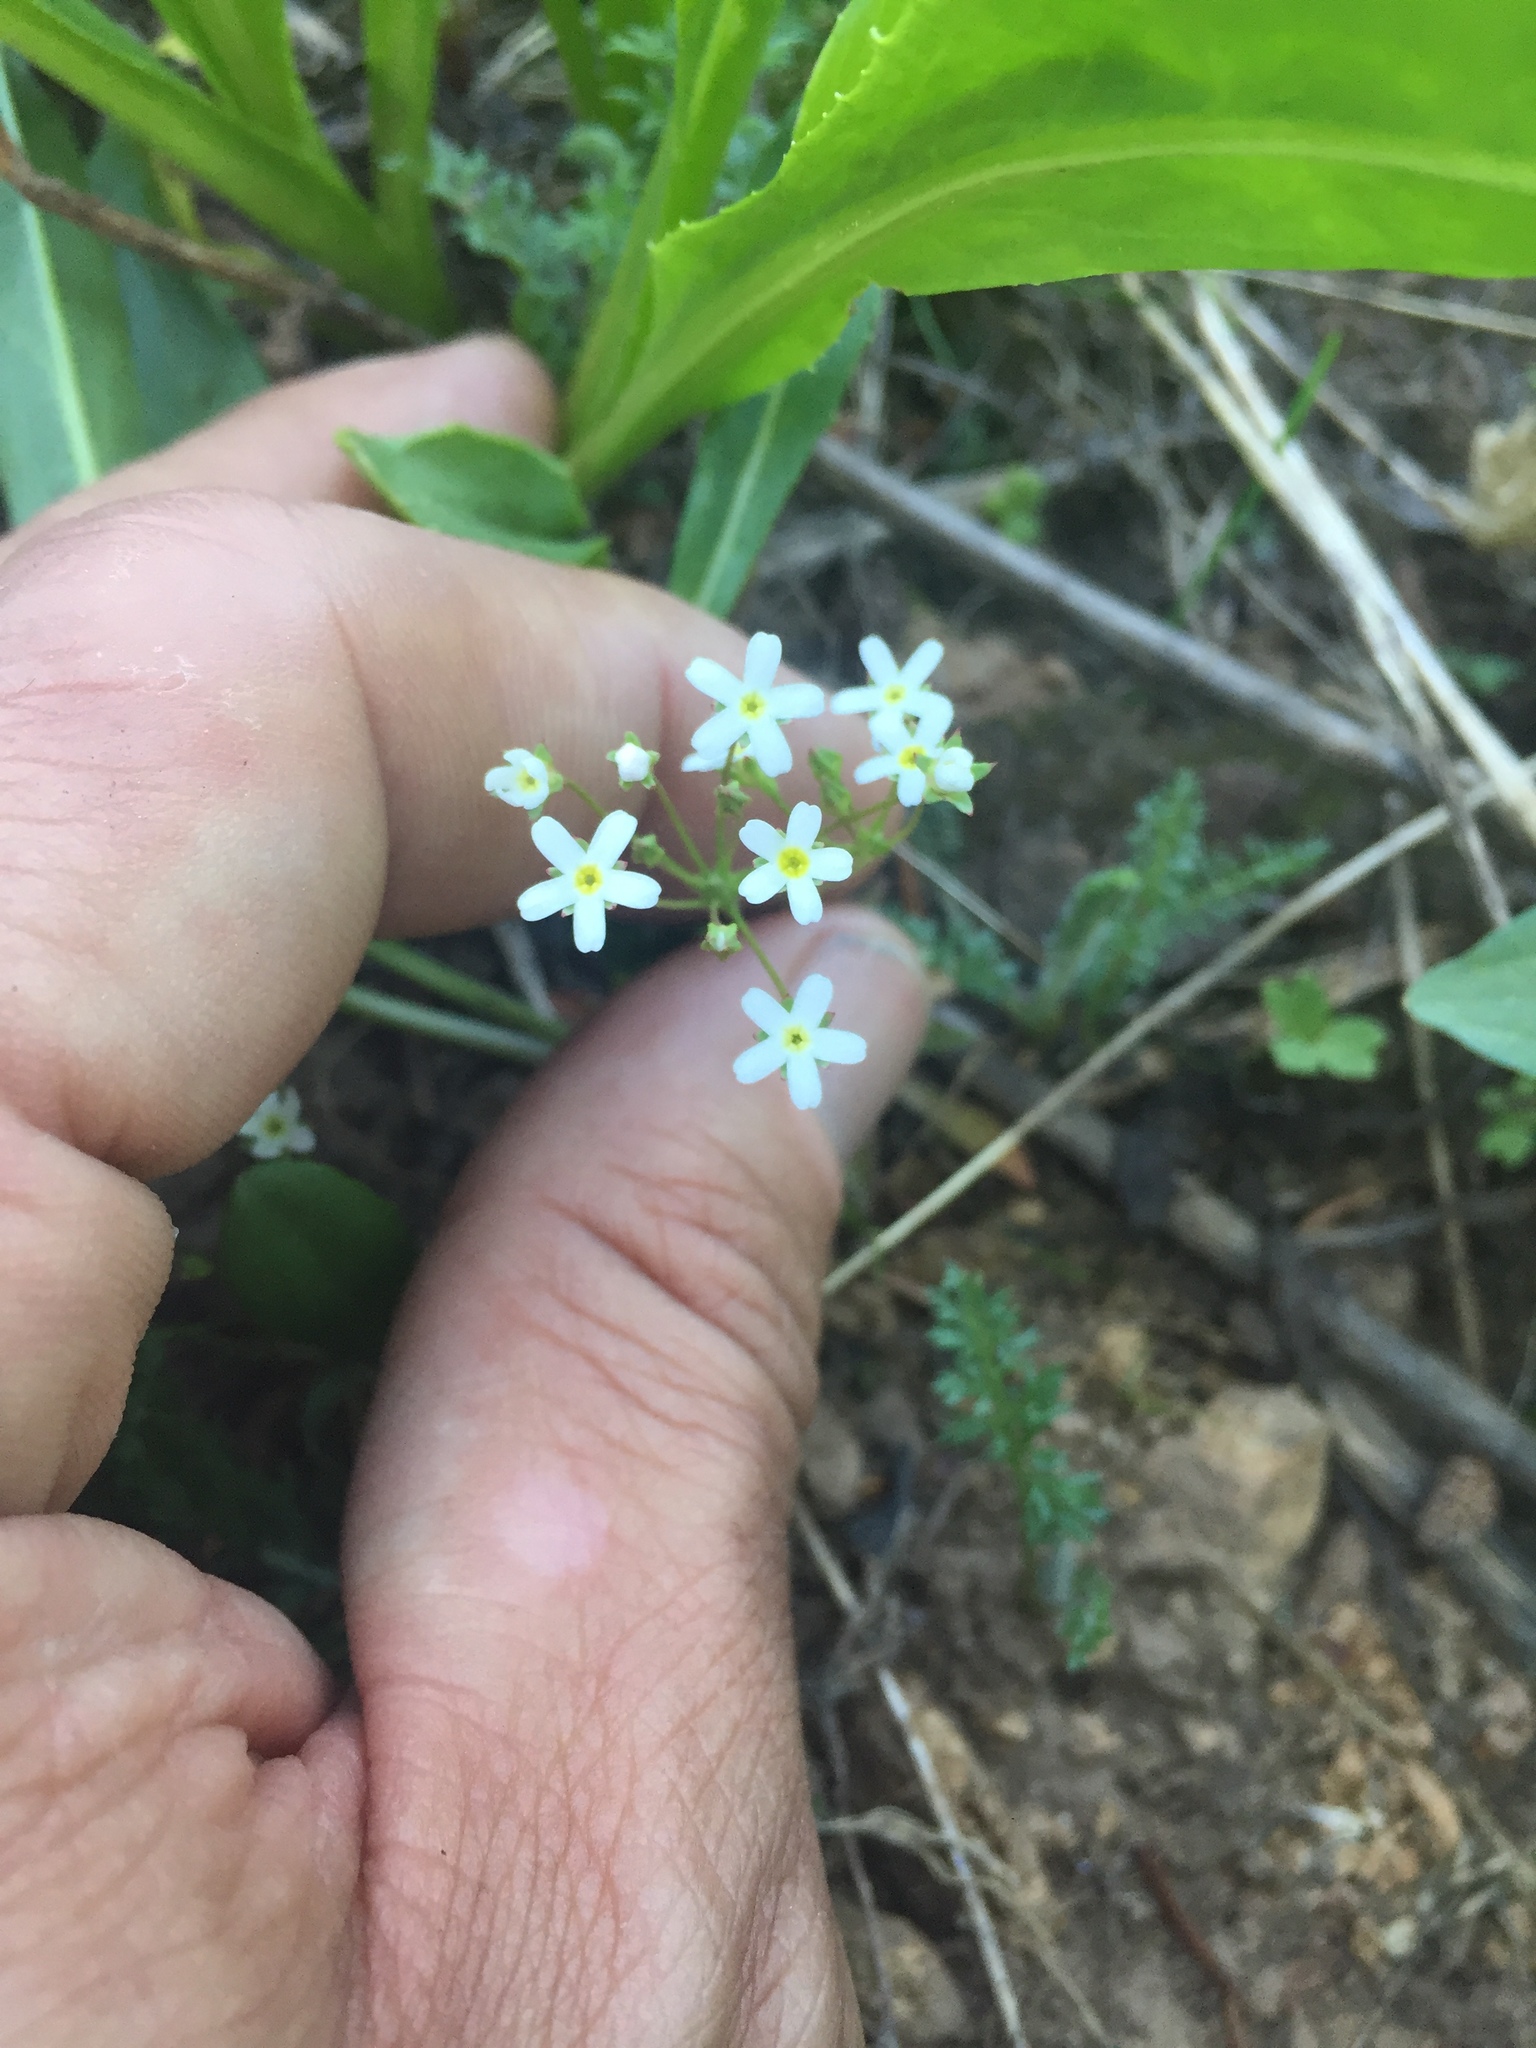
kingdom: Plantae
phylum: Tracheophyta
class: Magnoliopsida
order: Ericales
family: Primulaceae
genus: Androsace
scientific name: Androsace septentrionalis
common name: Hairy northern fairy-candelabra
